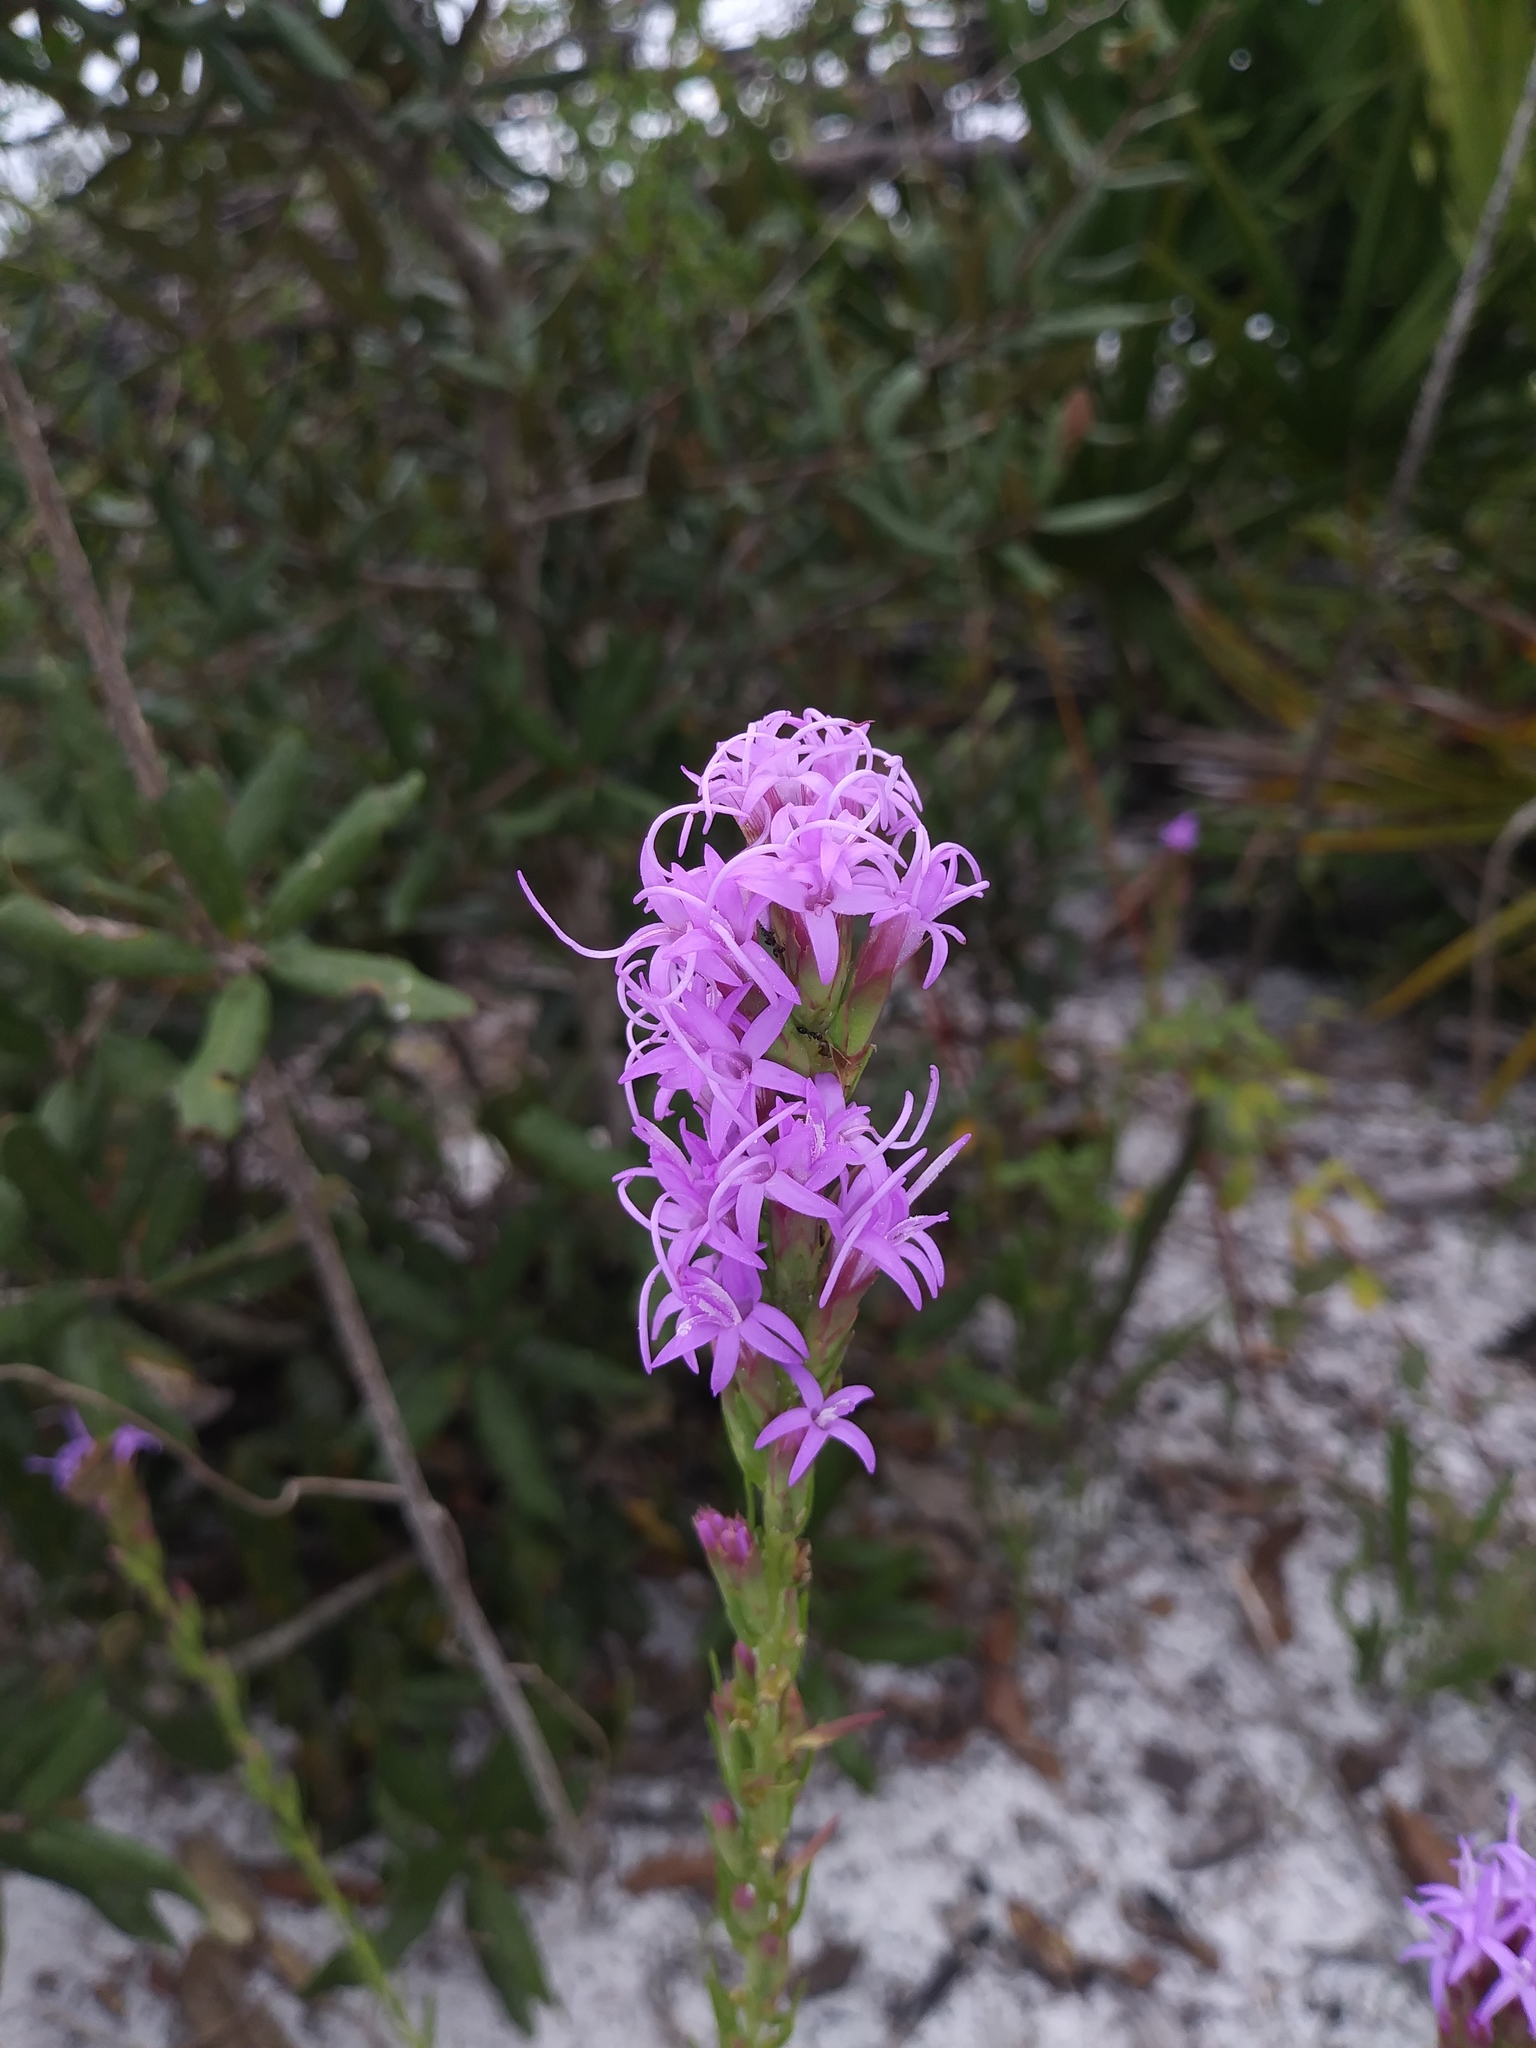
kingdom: Plantae
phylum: Tracheophyta
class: Magnoliopsida
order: Asterales
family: Asteraceae
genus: Liatris
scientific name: Liatris chapmanii
